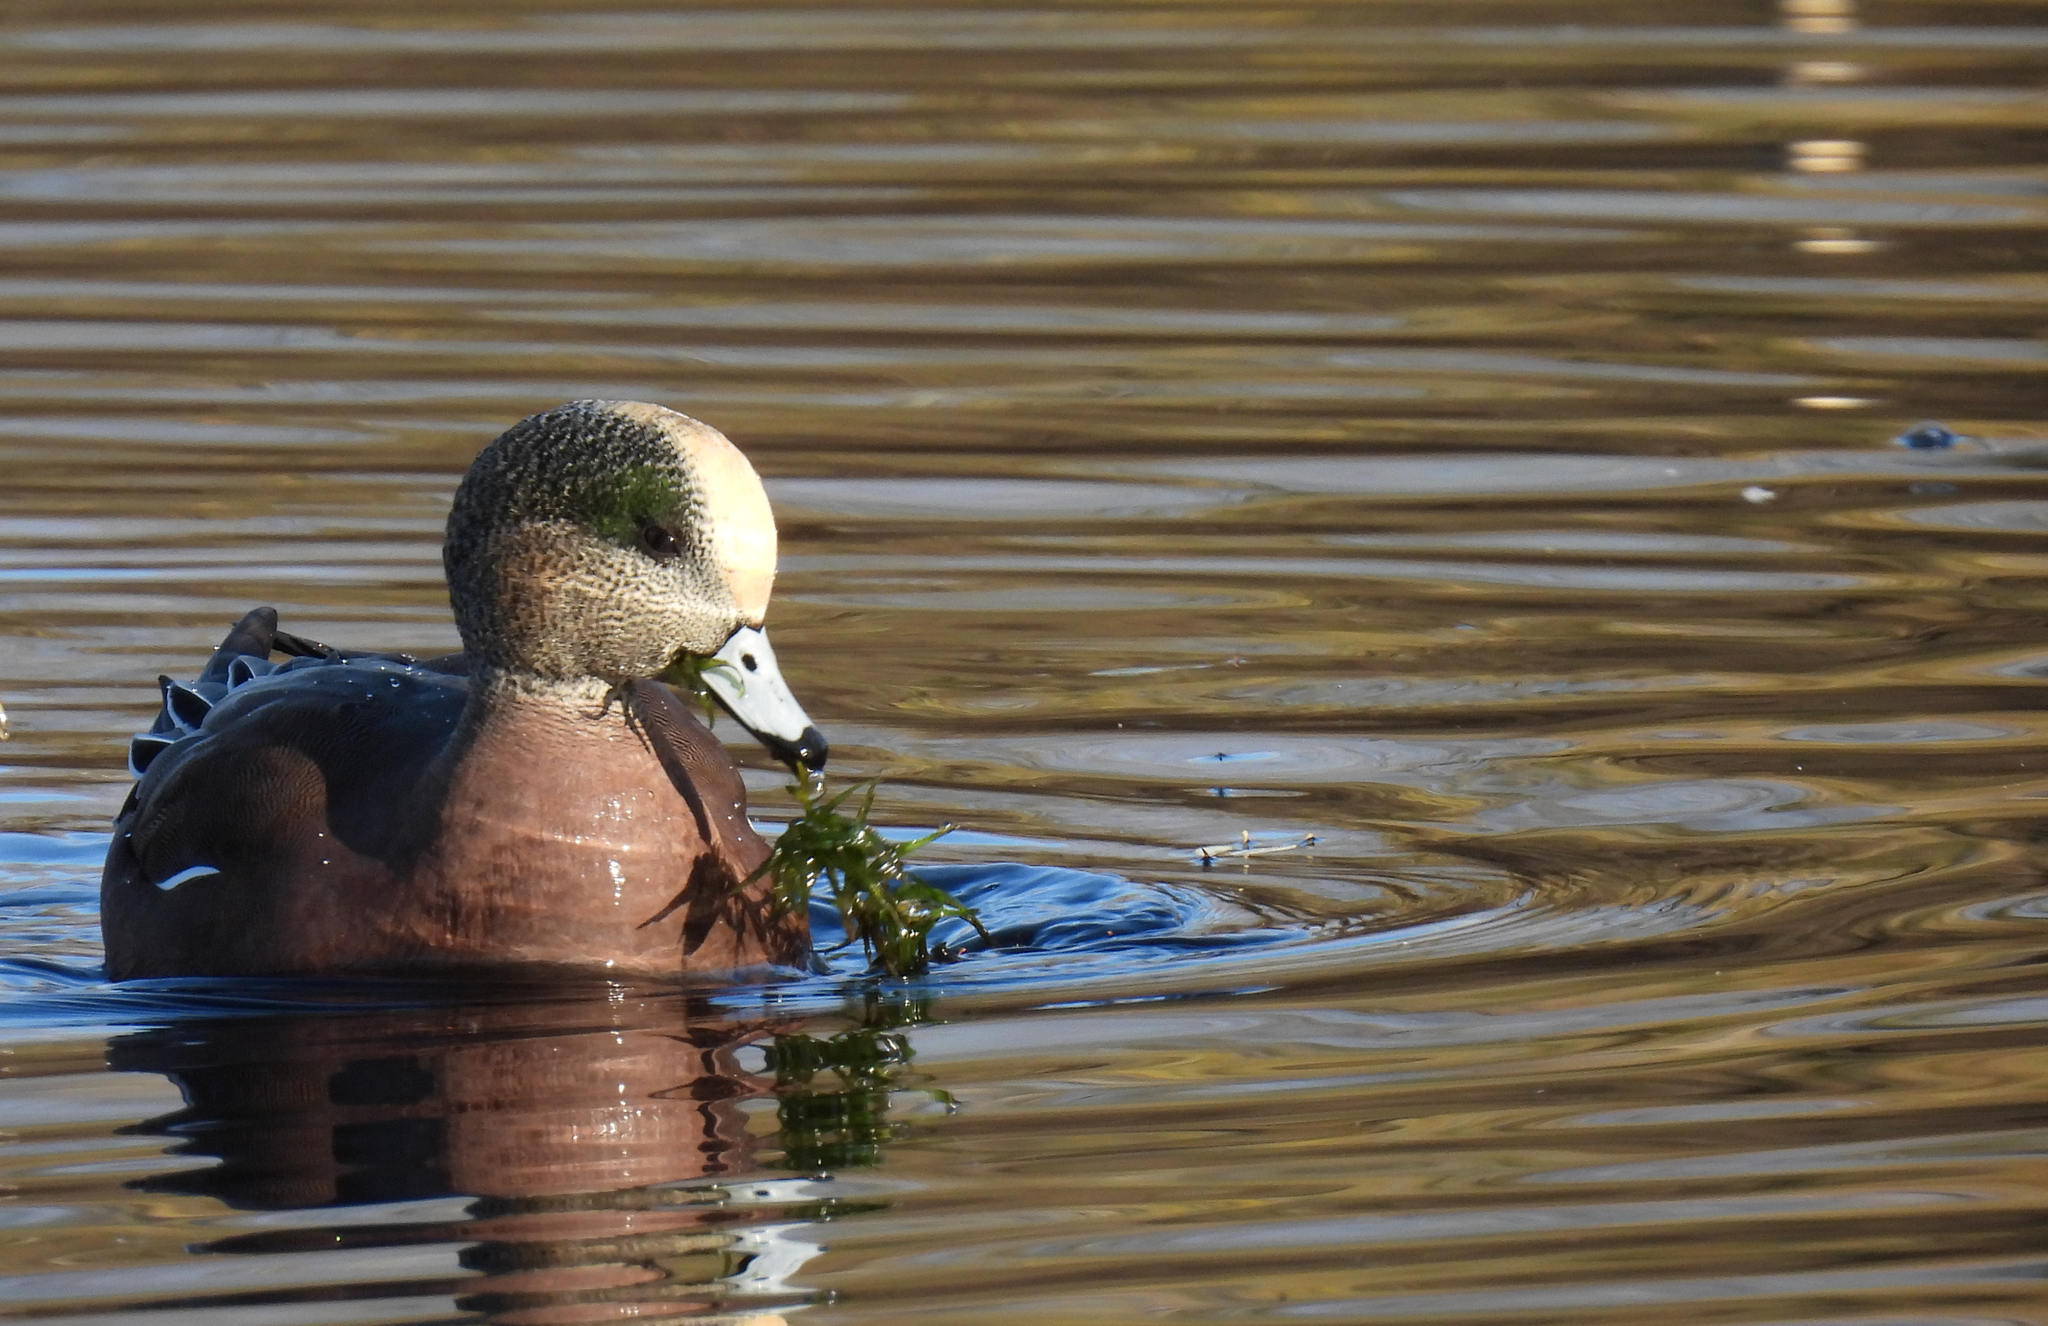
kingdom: Animalia
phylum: Chordata
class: Aves
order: Anseriformes
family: Anatidae
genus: Mareca
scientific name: Mareca americana
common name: American wigeon
